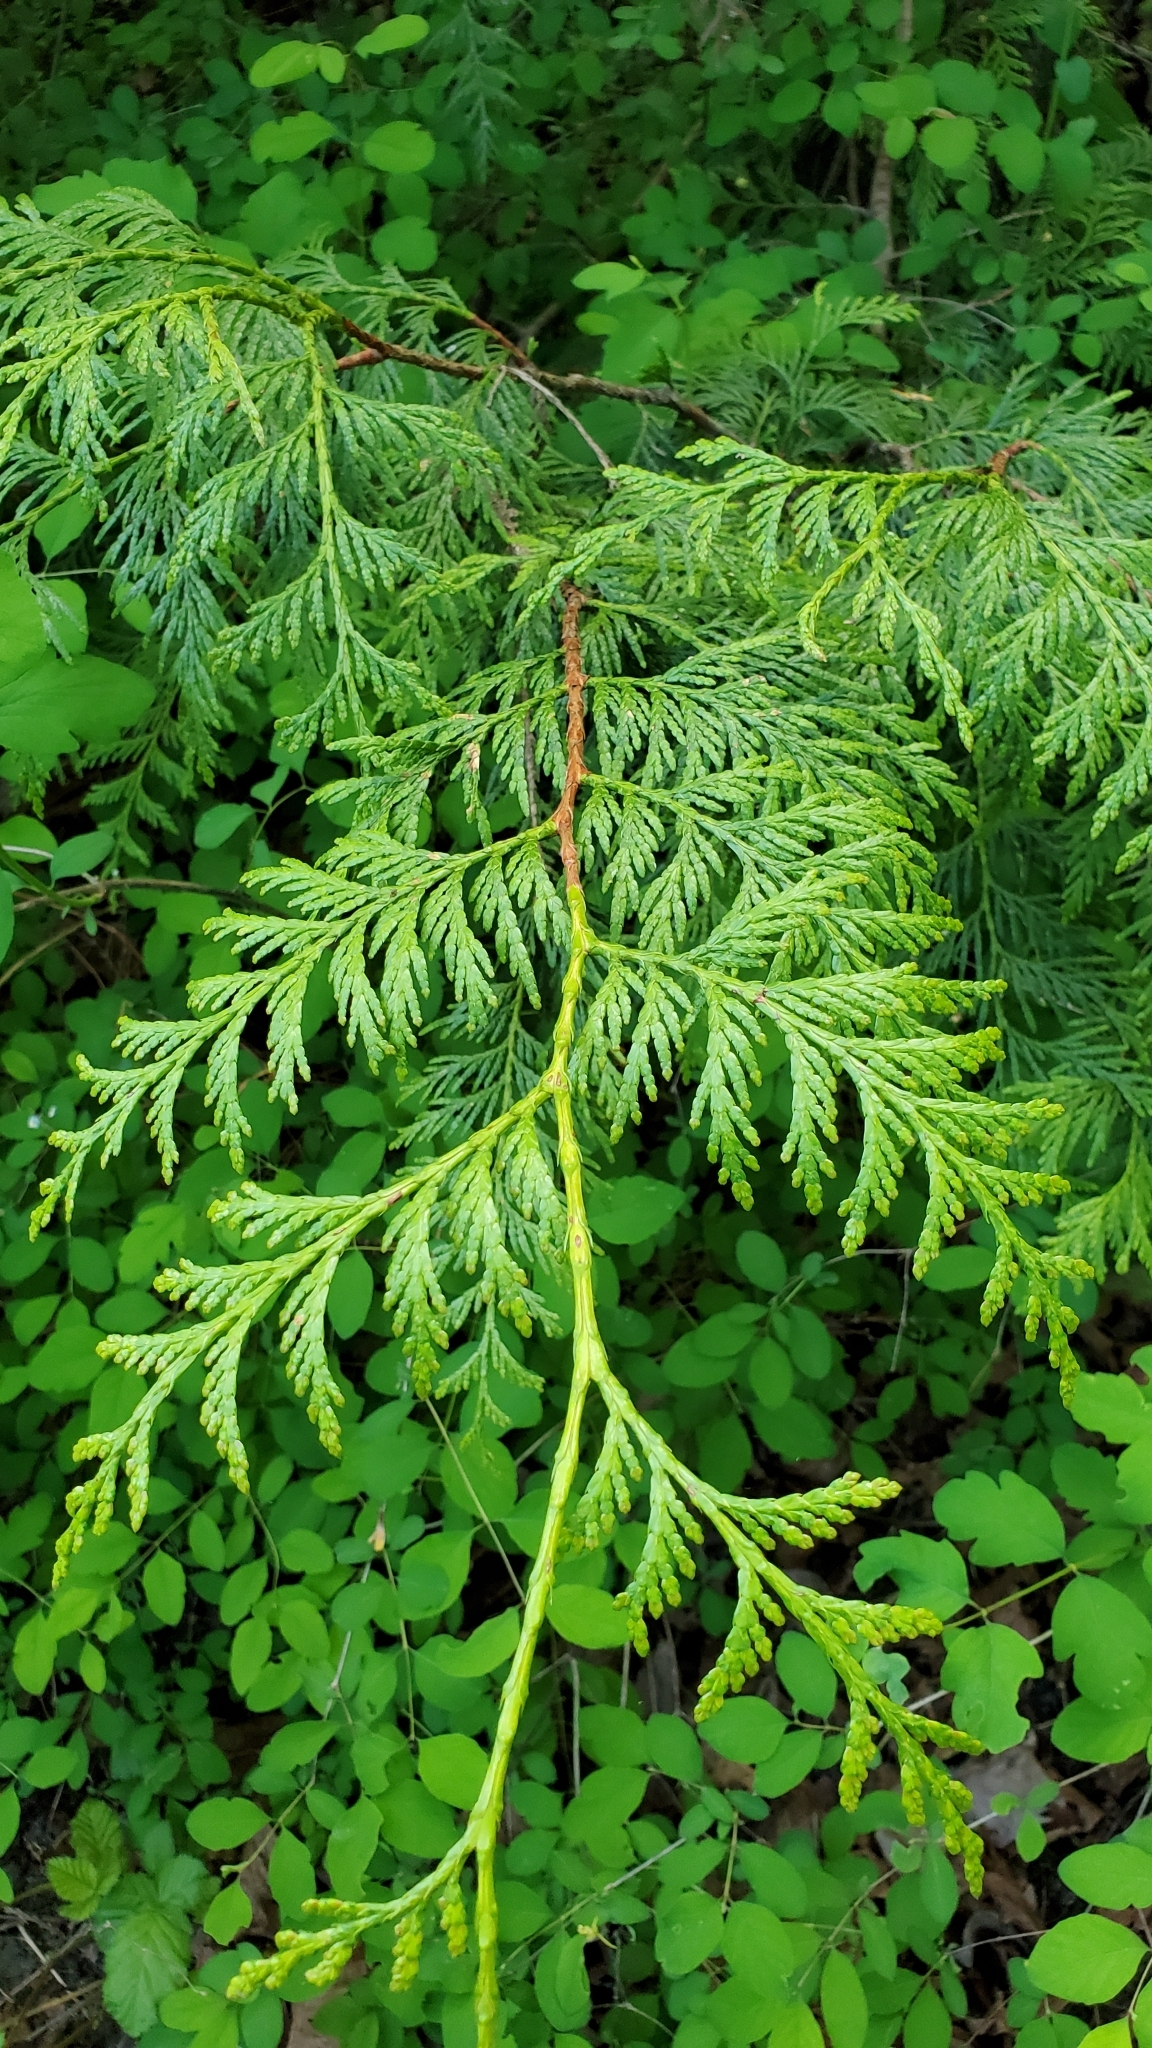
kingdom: Plantae
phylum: Tracheophyta
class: Pinopsida
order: Pinales
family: Cupressaceae
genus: Thuja
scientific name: Thuja plicata
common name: Western red-cedar
